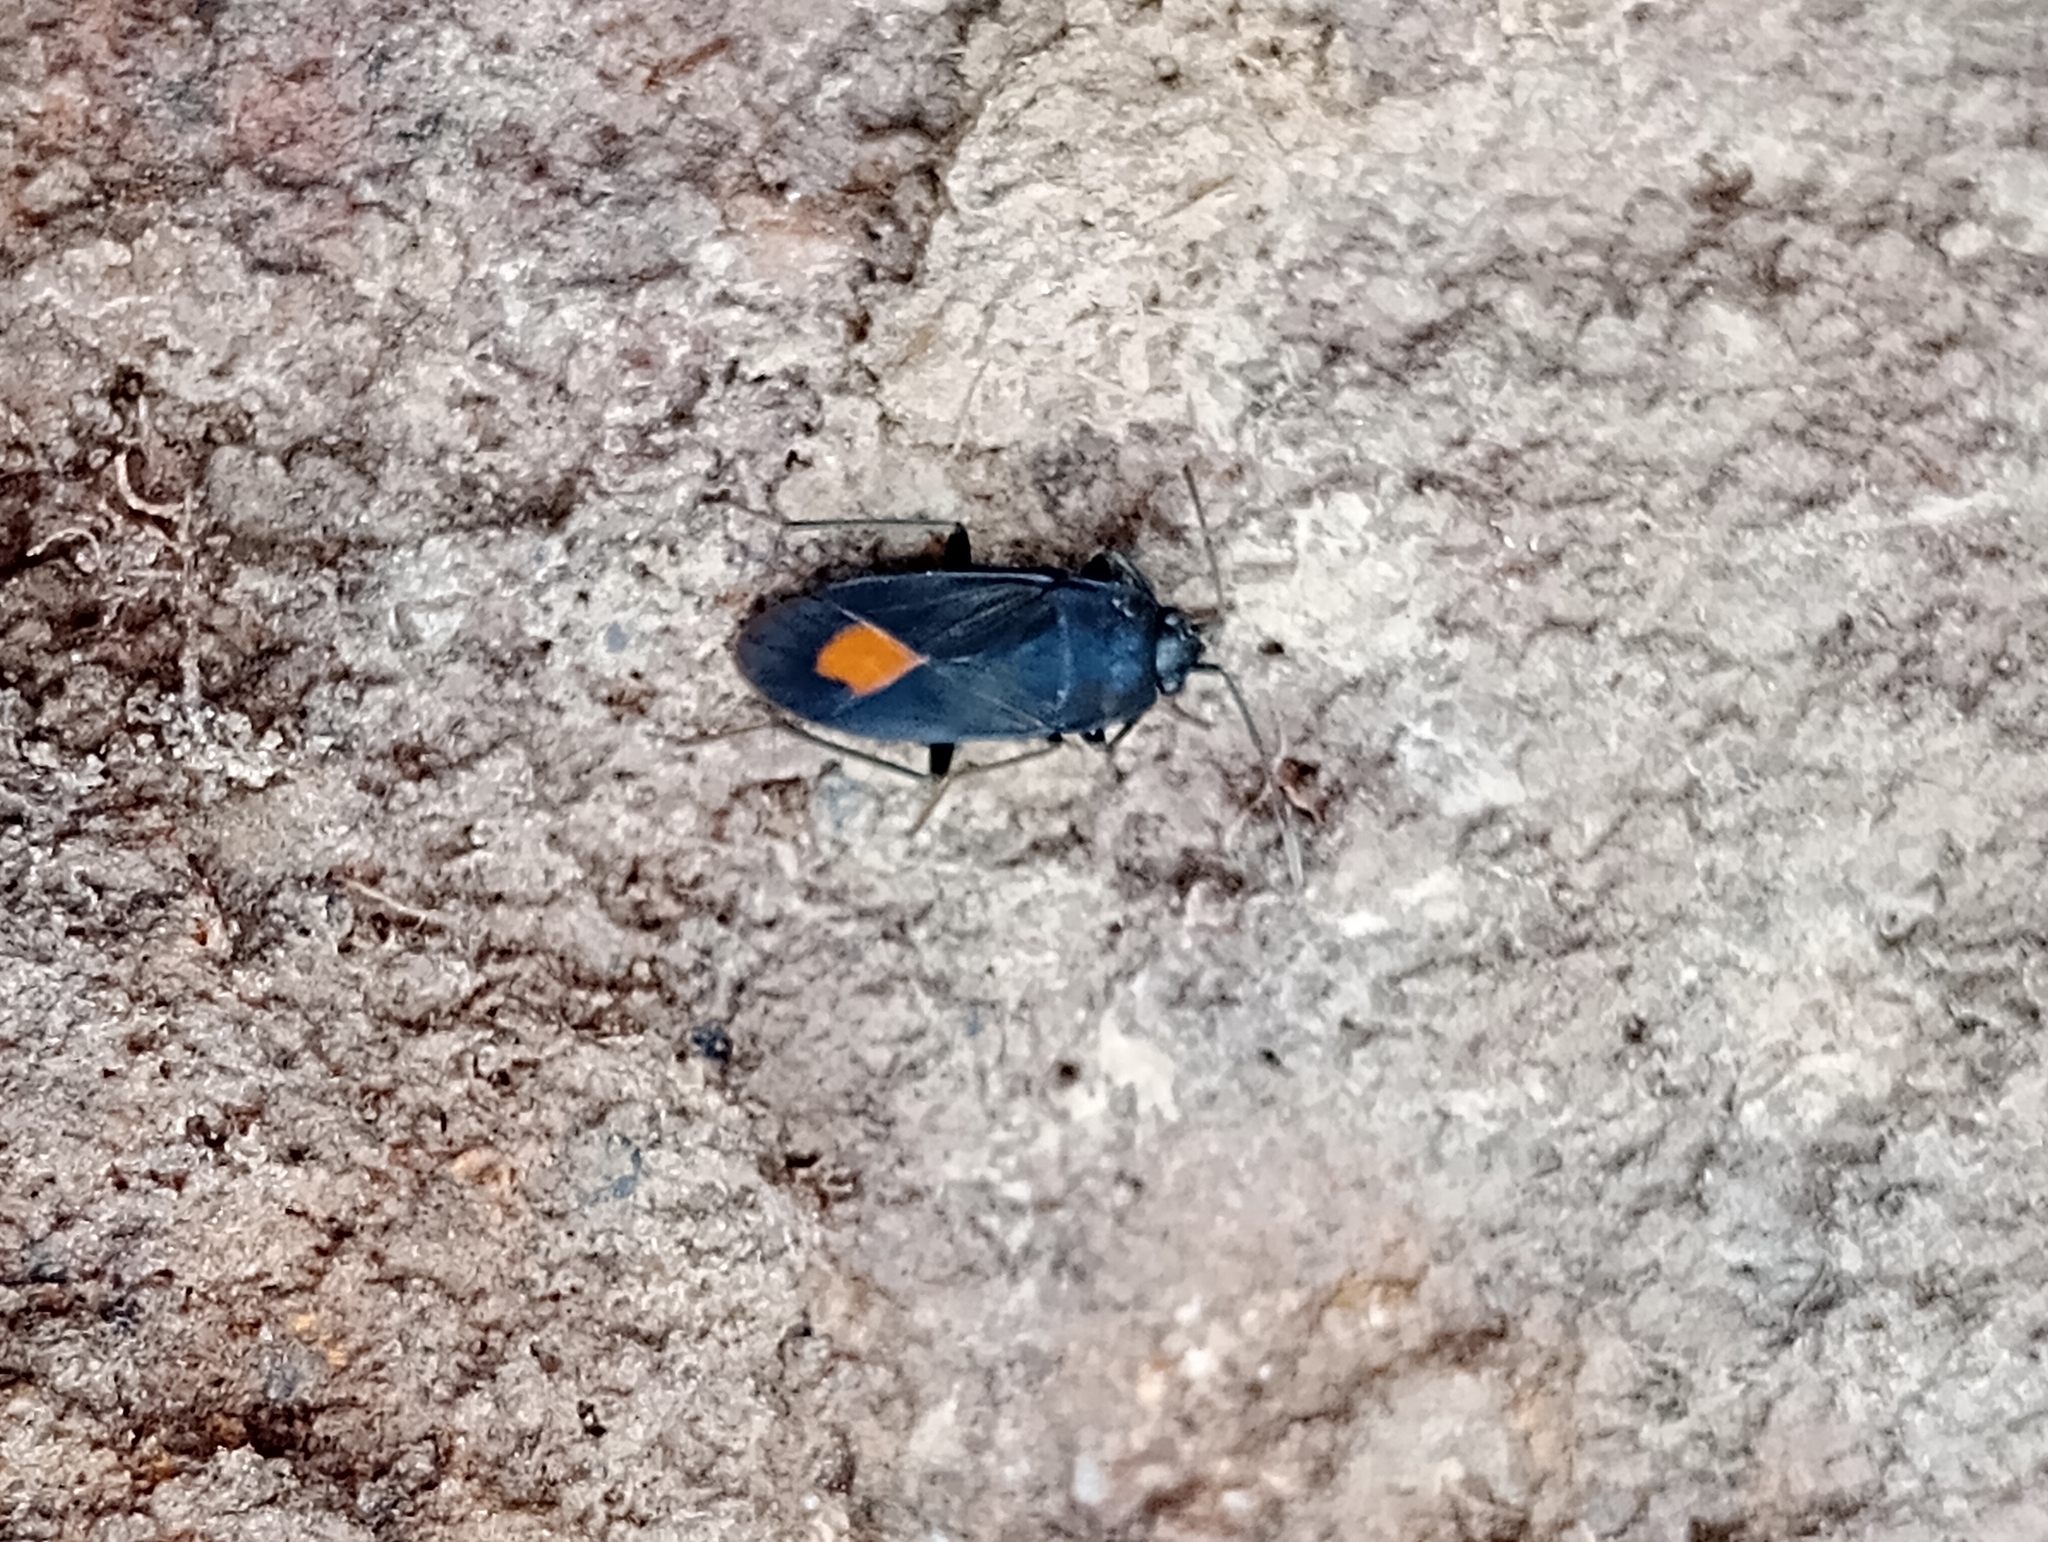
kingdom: Animalia
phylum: Arthropoda
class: Insecta
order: Hemiptera
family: Rhyparochromidae
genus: Aphanus
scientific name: Aphanus rolandri
